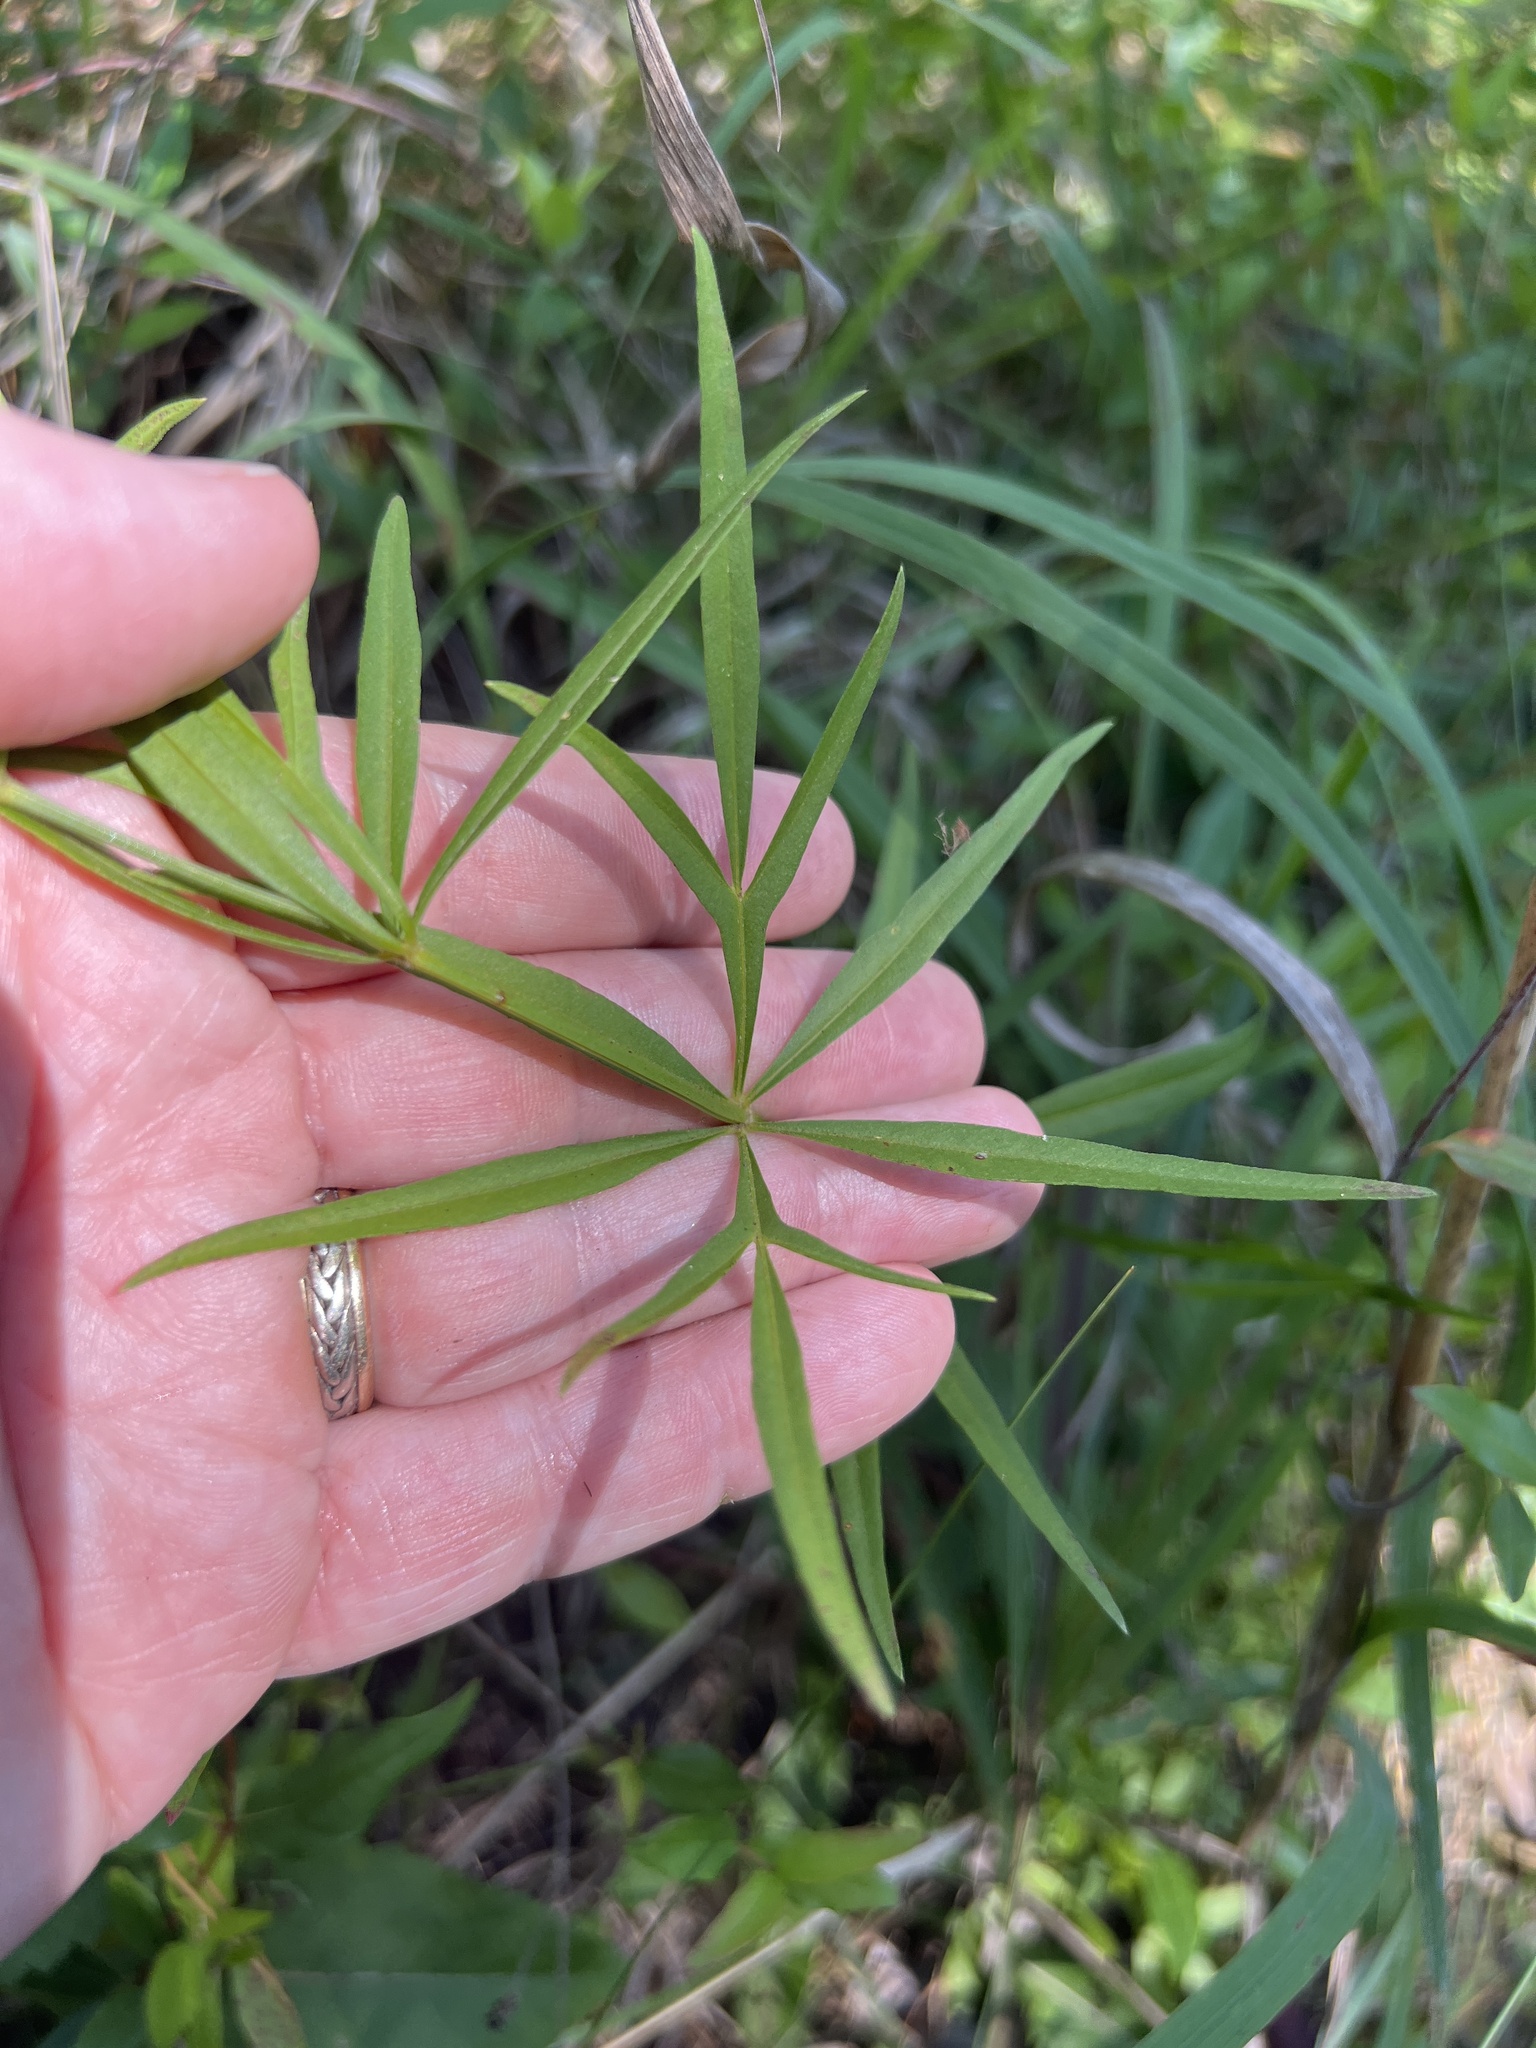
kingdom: Plantae
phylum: Tracheophyta
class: Magnoliopsida
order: Asterales
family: Asteraceae
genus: Coreopsis
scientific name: Coreopsis delphiniifolia
